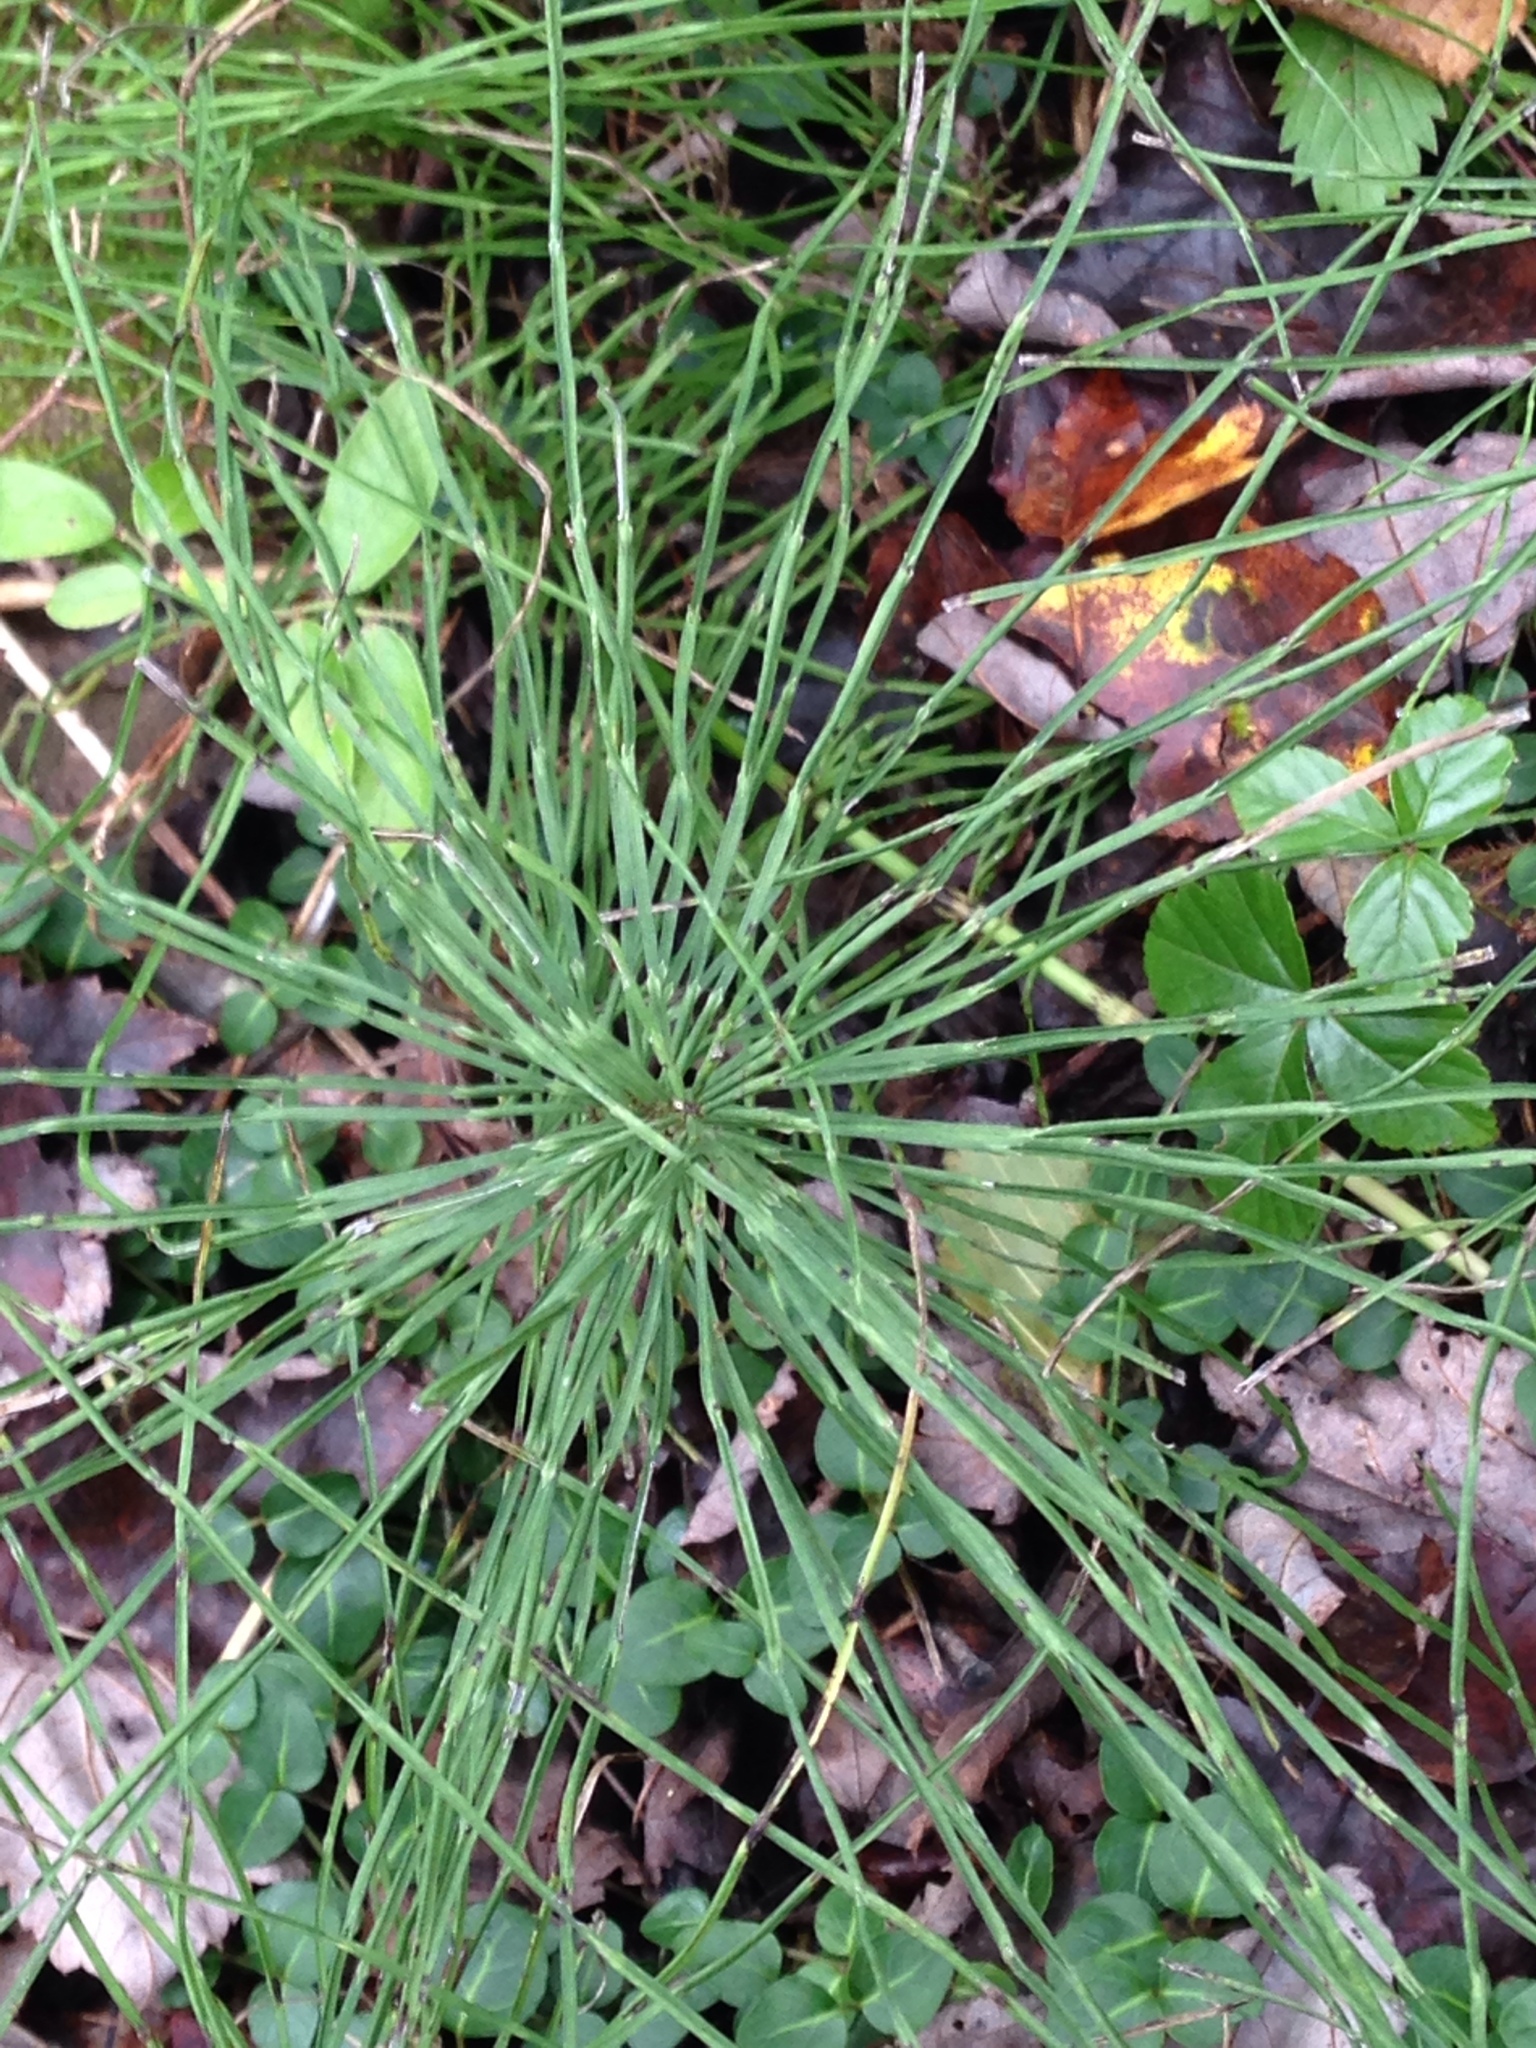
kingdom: Plantae
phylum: Tracheophyta
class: Polypodiopsida
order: Equisetales
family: Equisetaceae
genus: Equisetum
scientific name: Equisetum arvense
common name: Field horsetail
